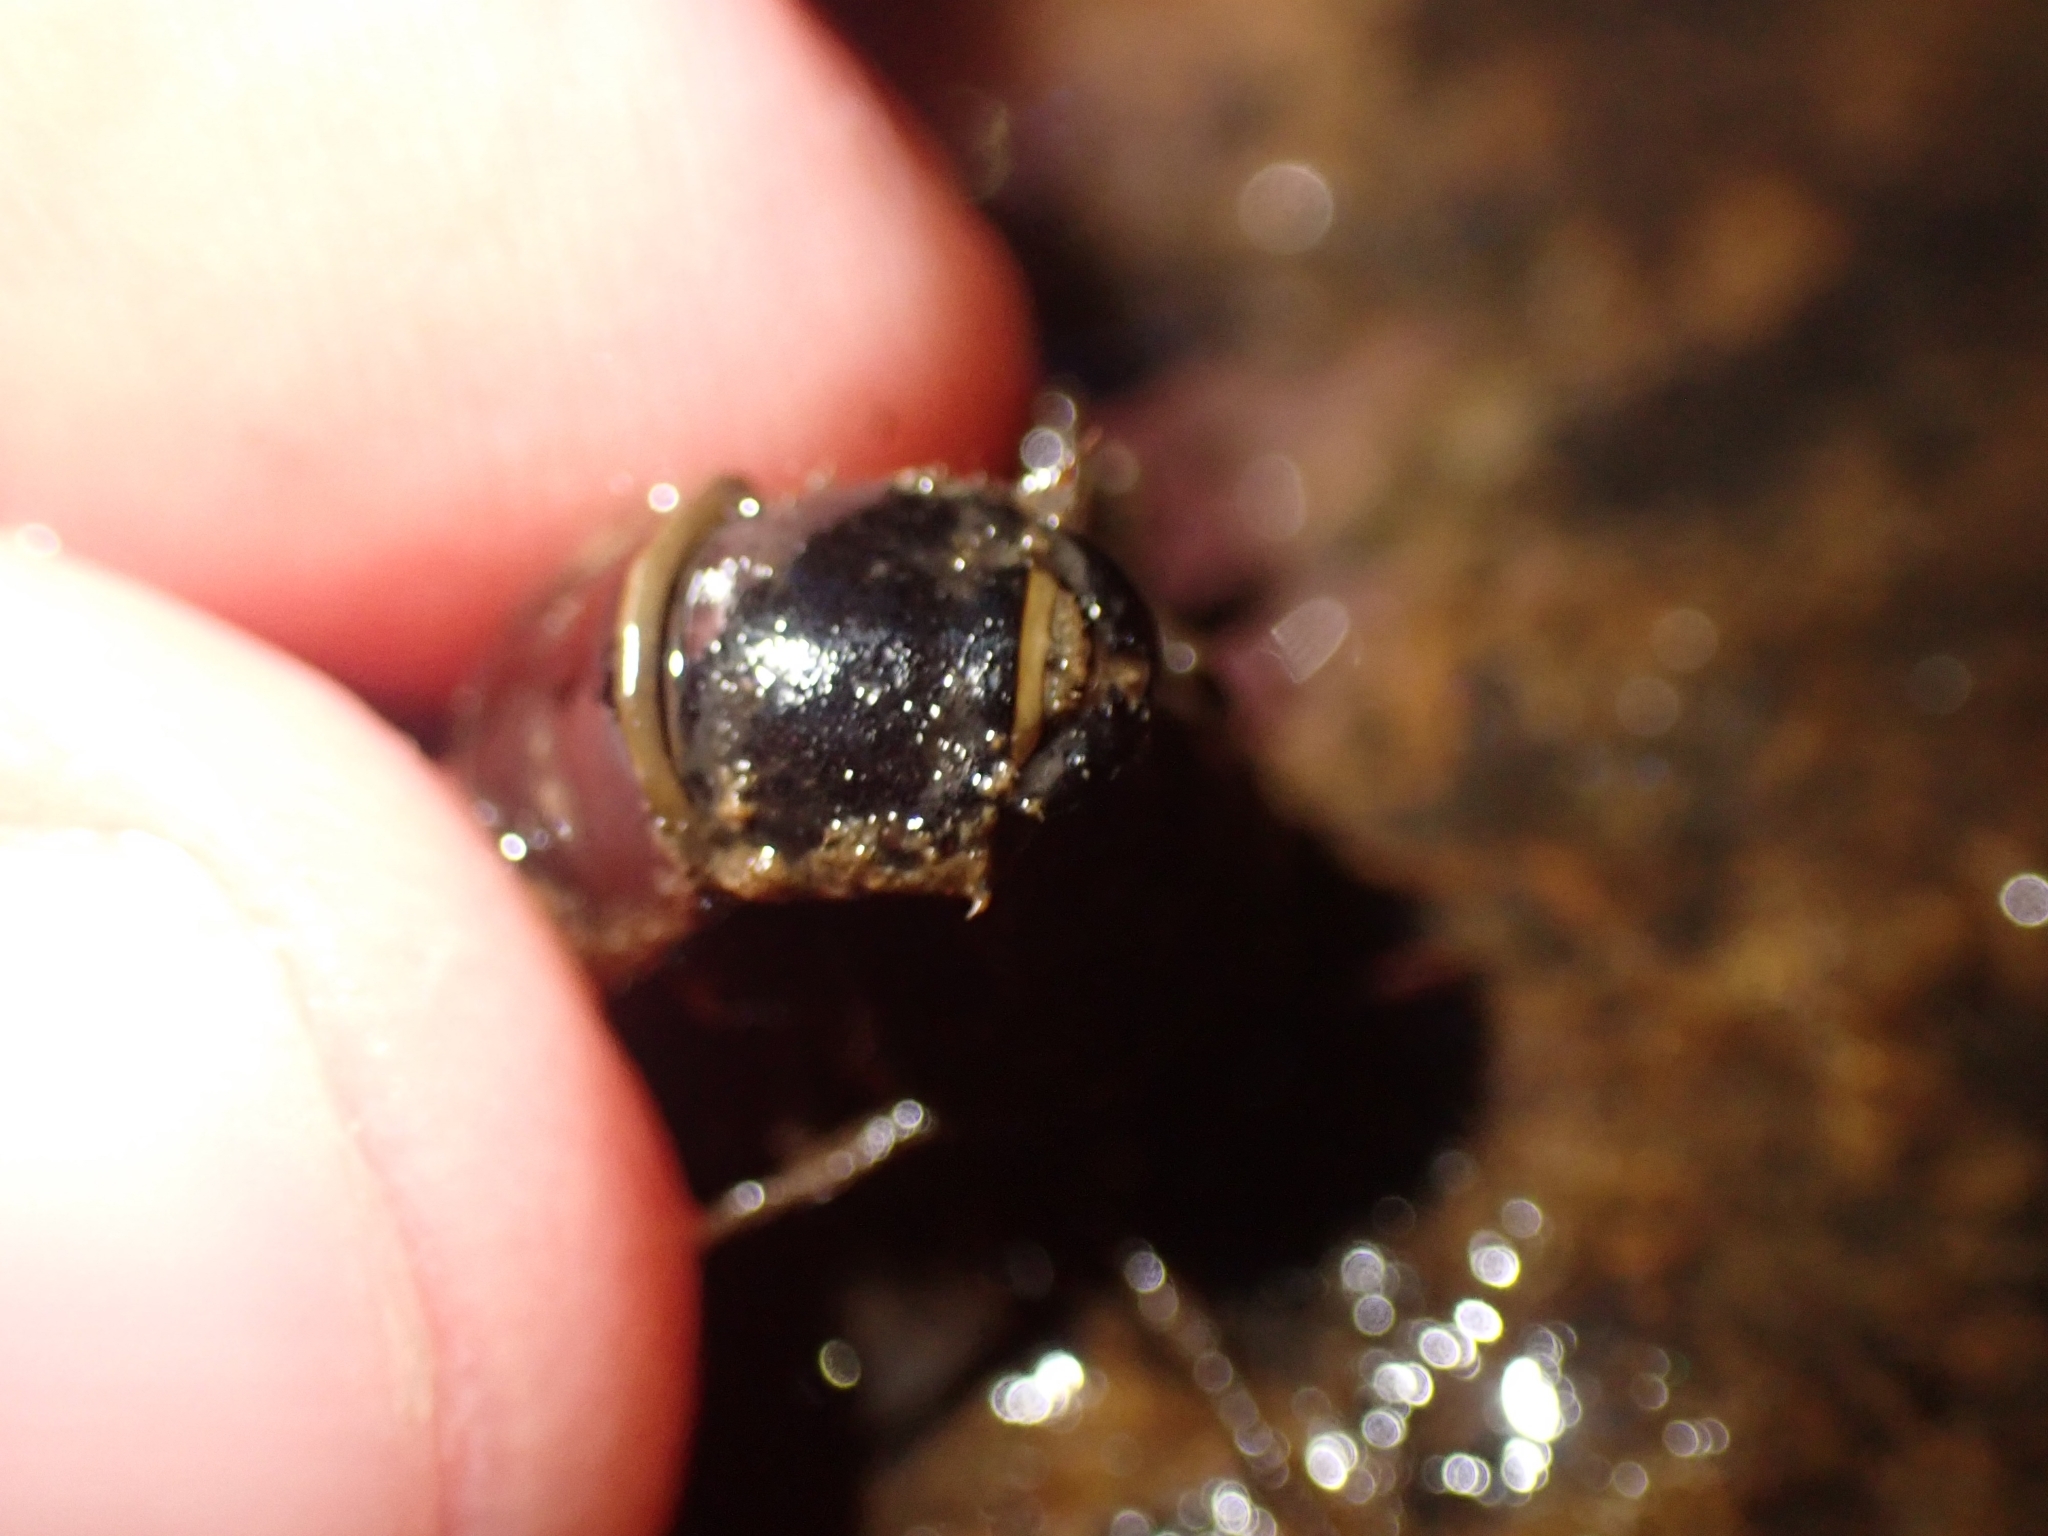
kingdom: Animalia
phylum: Arthropoda
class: Insecta
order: Megaloptera
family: Corydalidae
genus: Archichauliodes
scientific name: Archichauliodes diversus
